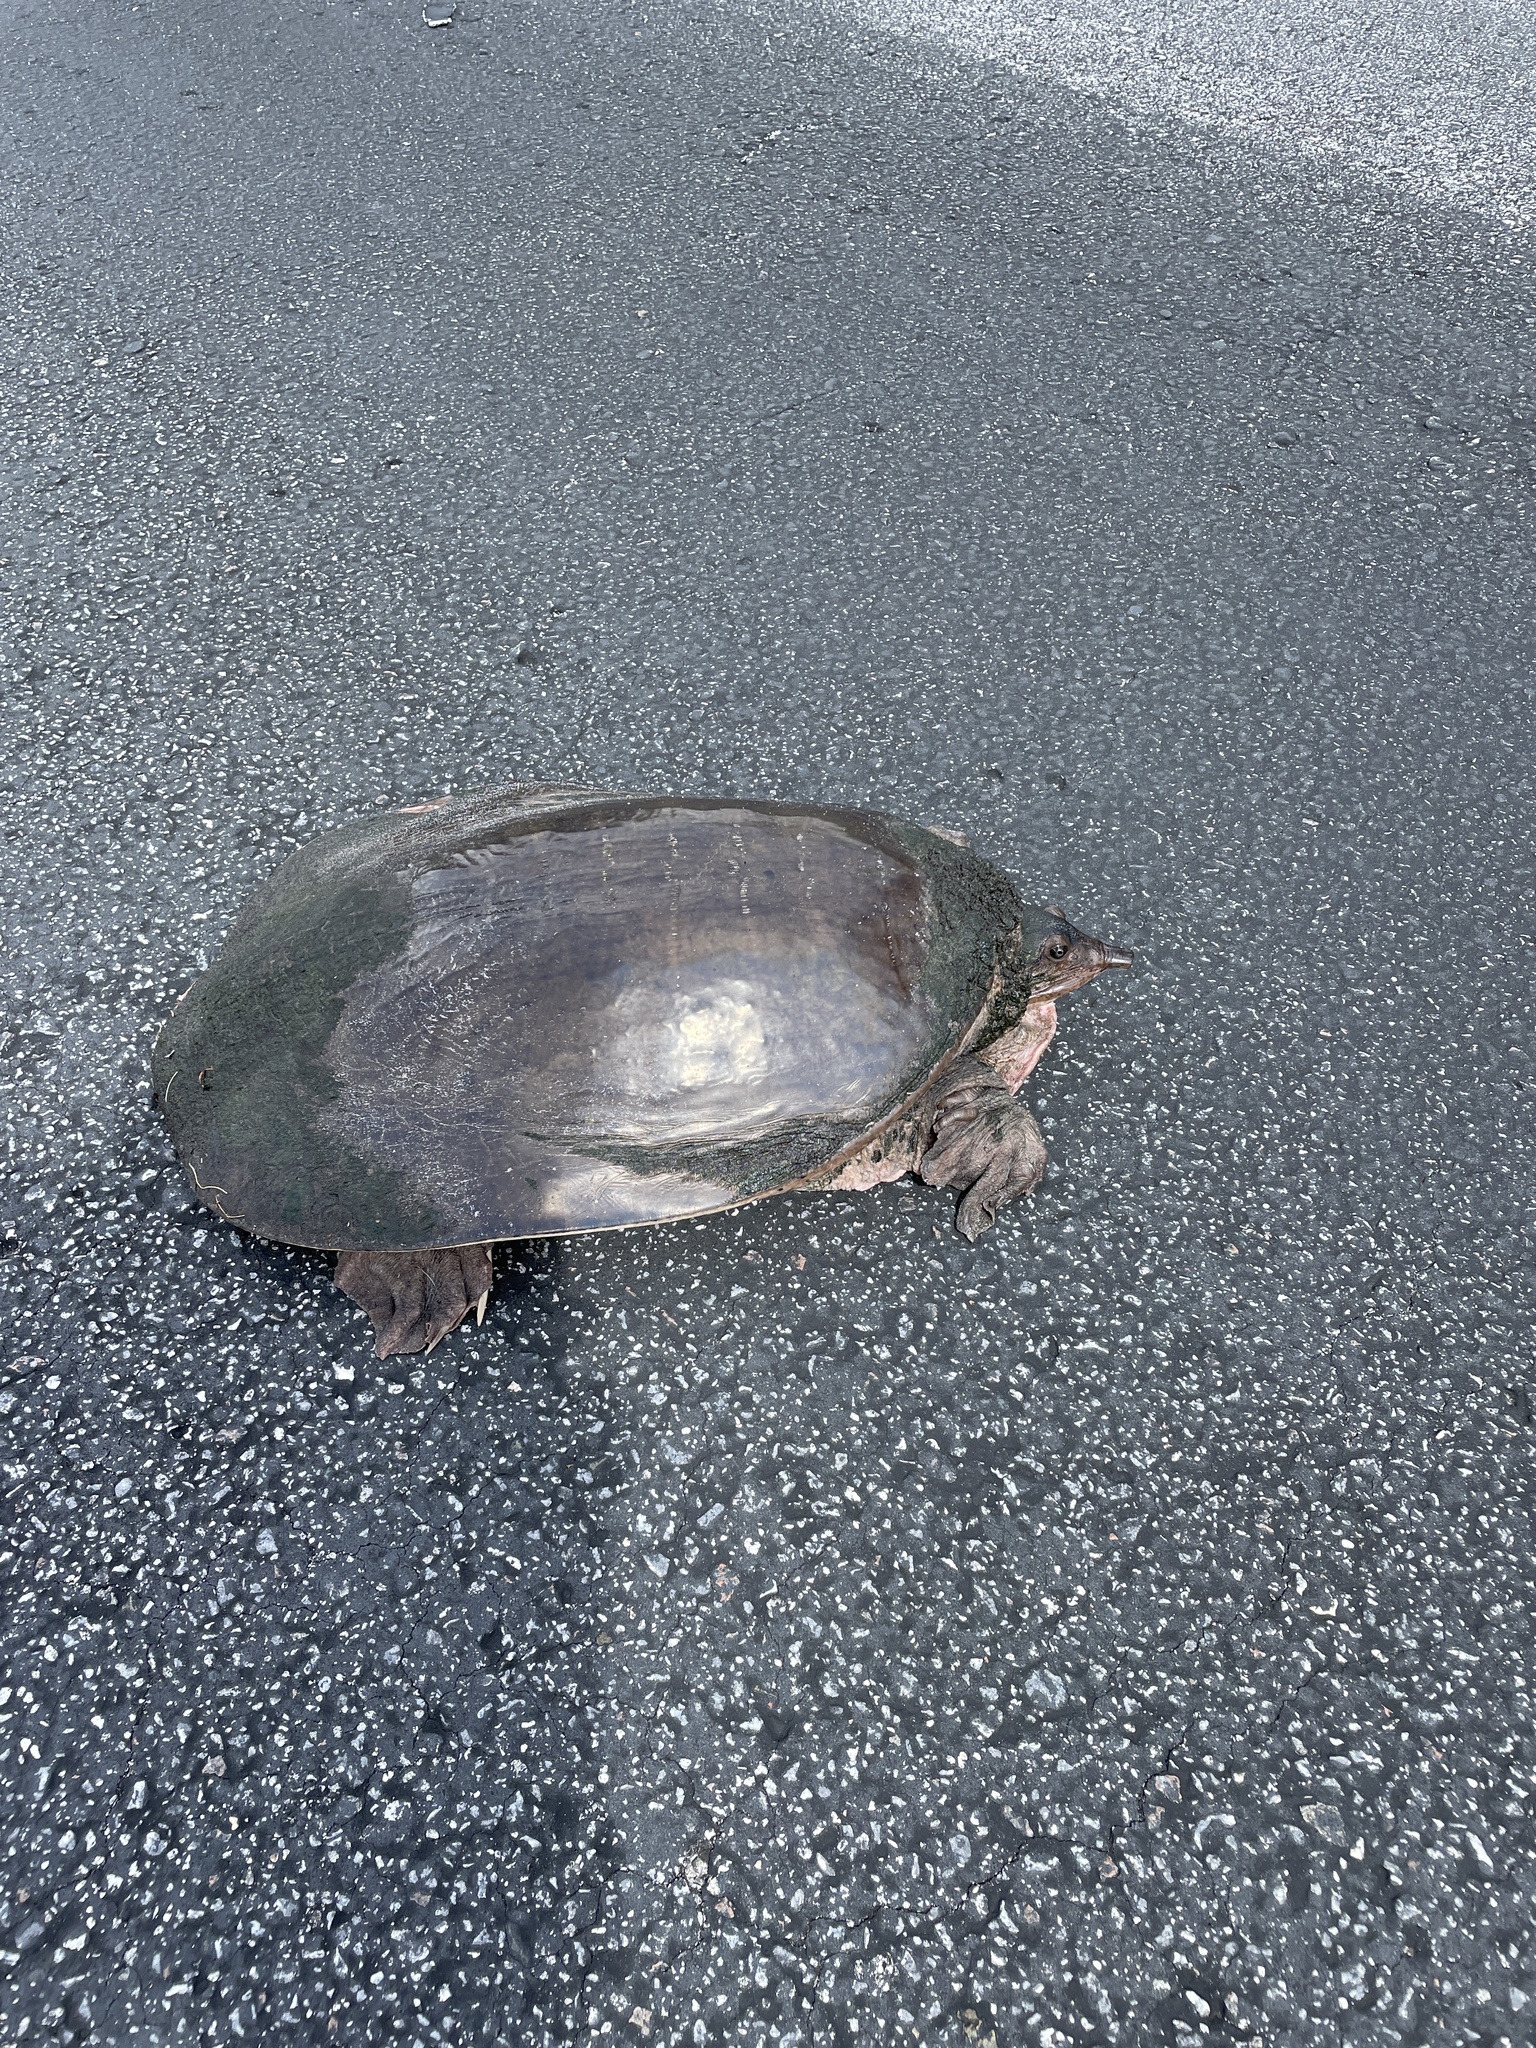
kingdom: Animalia
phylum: Chordata
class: Testudines
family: Trionychidae
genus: Apalone
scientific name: Apalone ferox
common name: Florida softshell turtle
